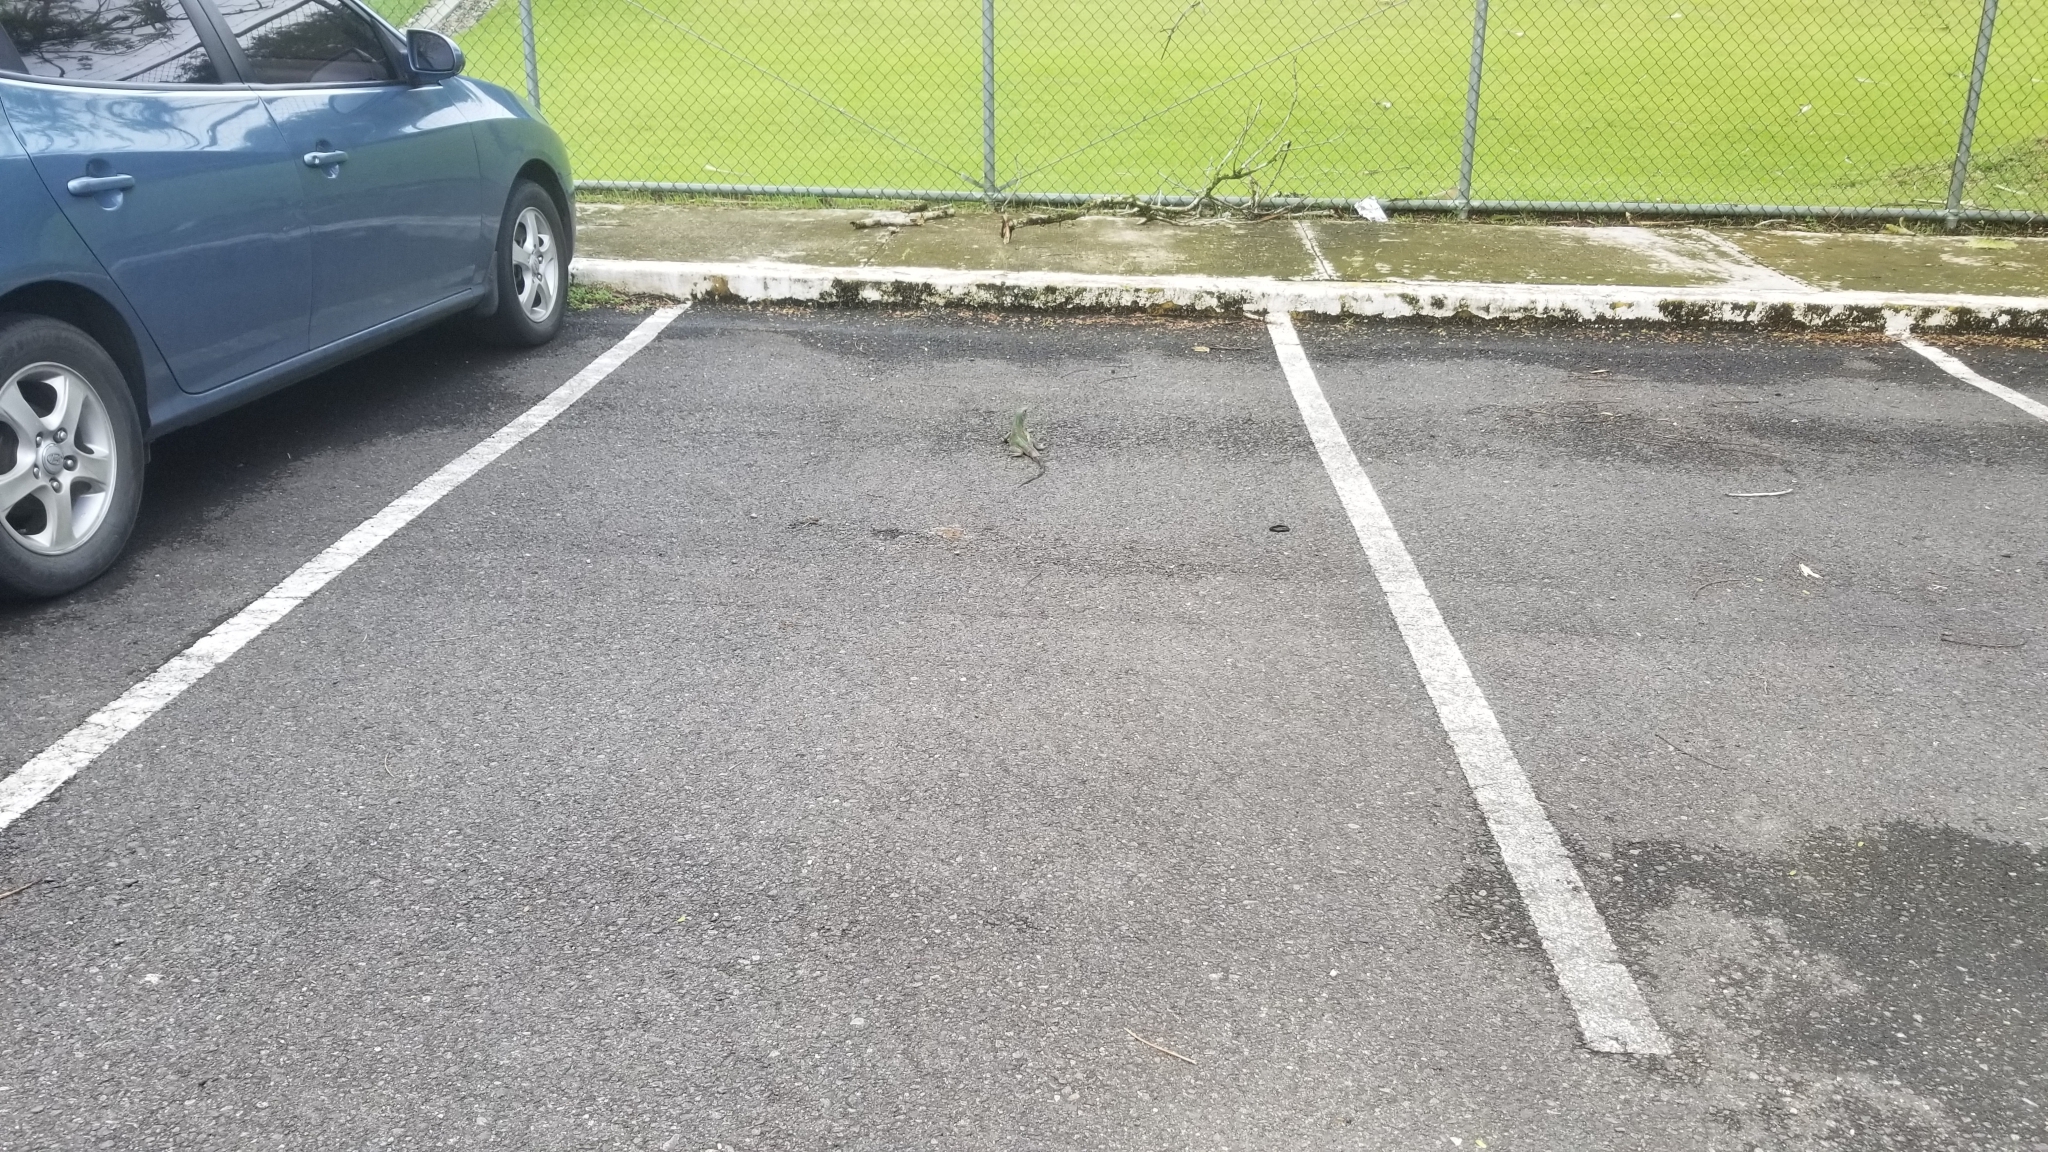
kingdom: Animalia
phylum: Chordata
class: Squamata
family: Iguanidae
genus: Ctenosaura
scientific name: Ctenosaura similis
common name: Black spiny-tailed iguana
